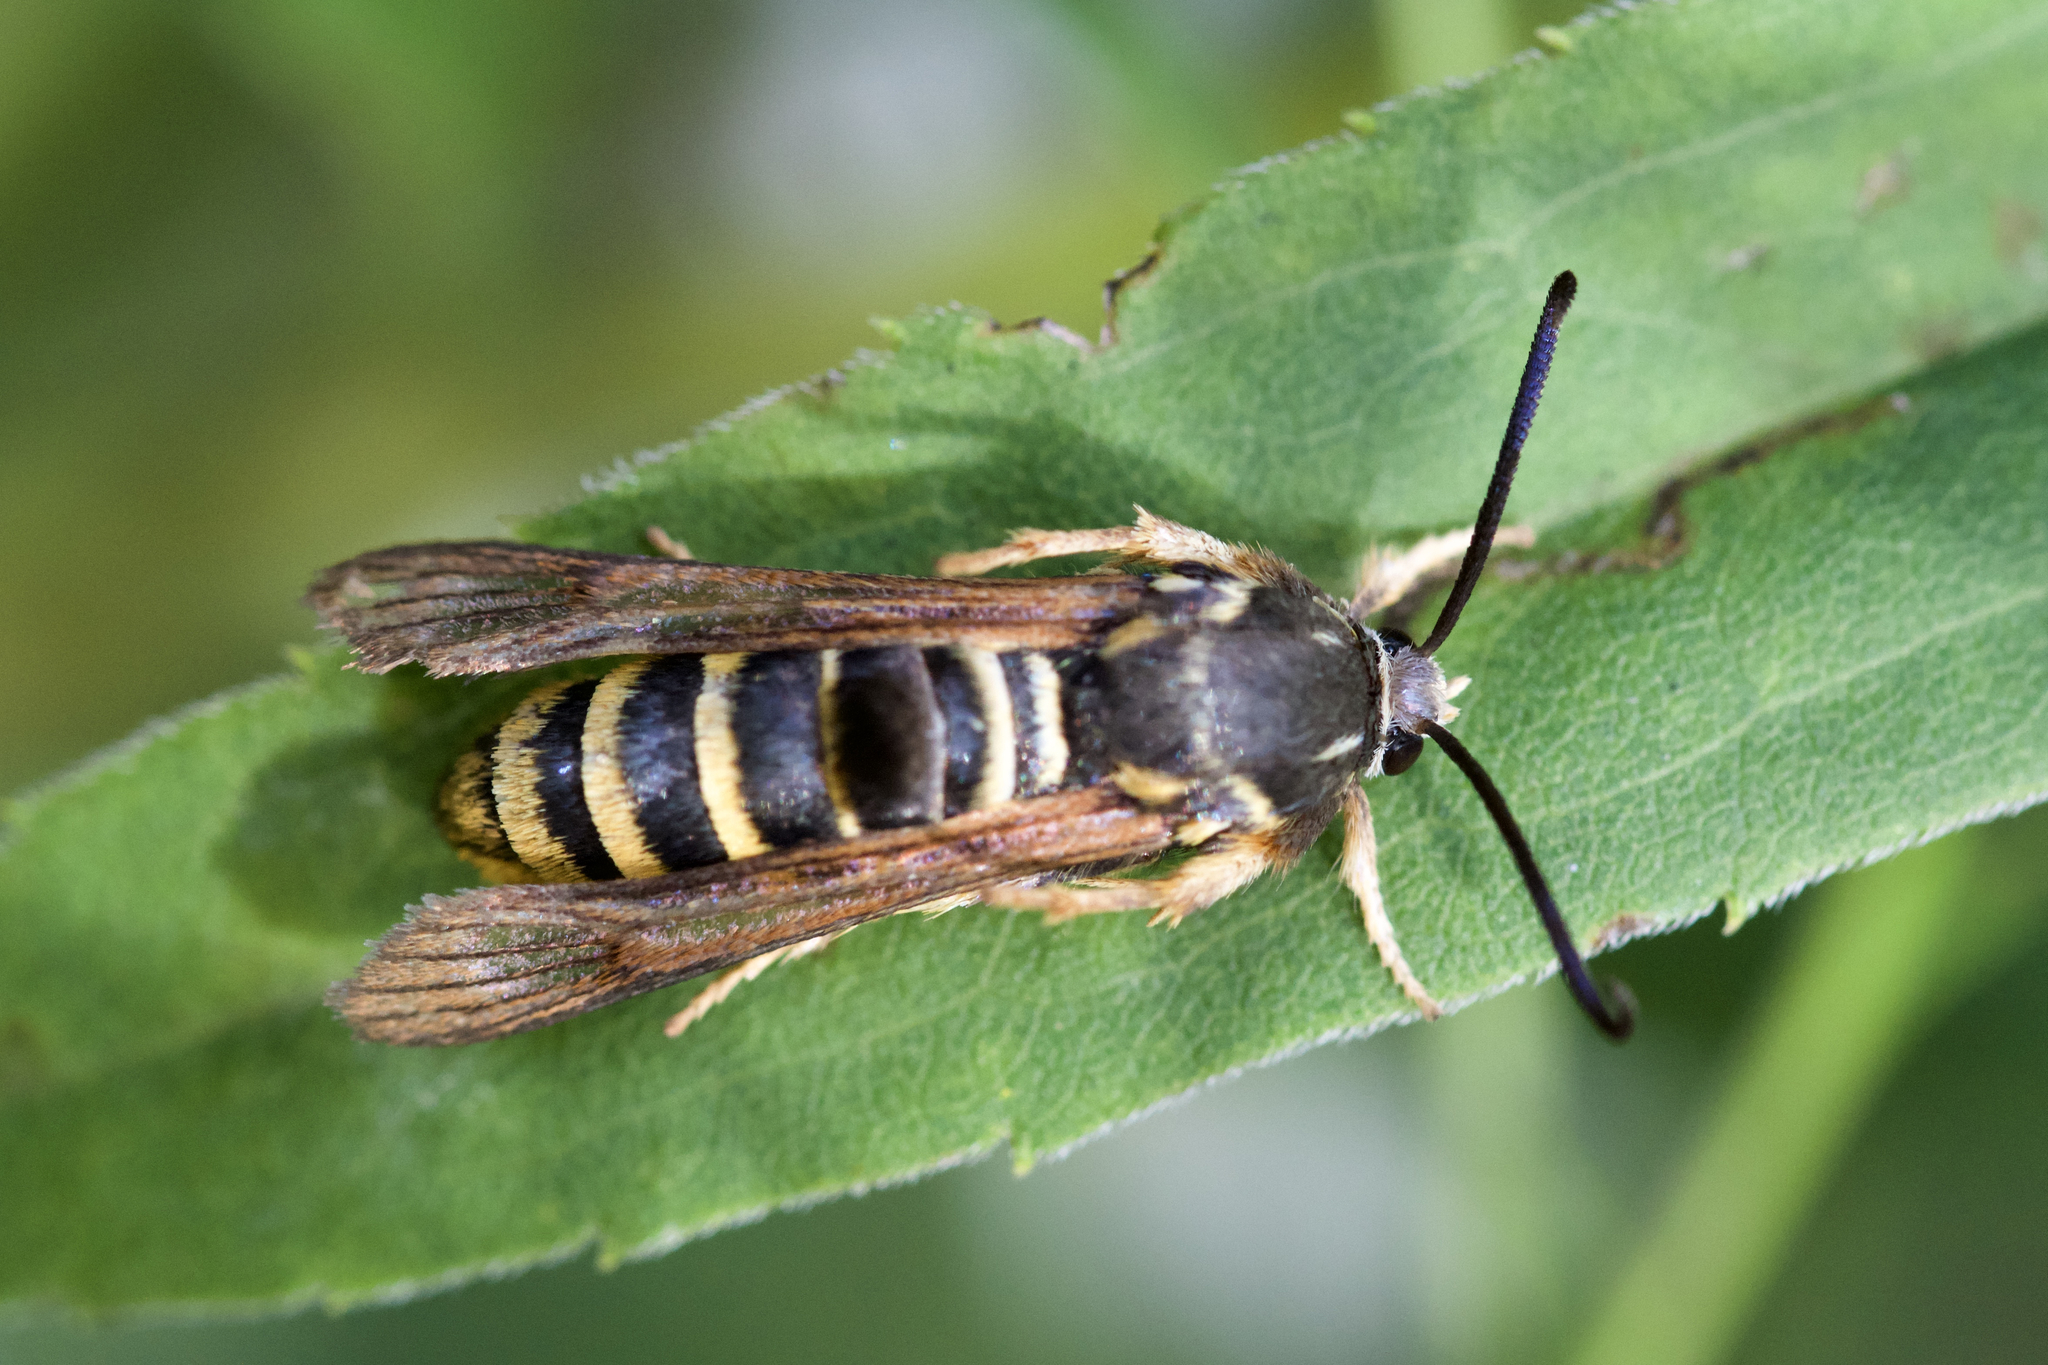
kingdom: Animalia
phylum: Arthropoda
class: Insecta
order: Lepidoptera
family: Sesiidae
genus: Pennisetia
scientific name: Pennisetia marginatum
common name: Raspberry crown borer
